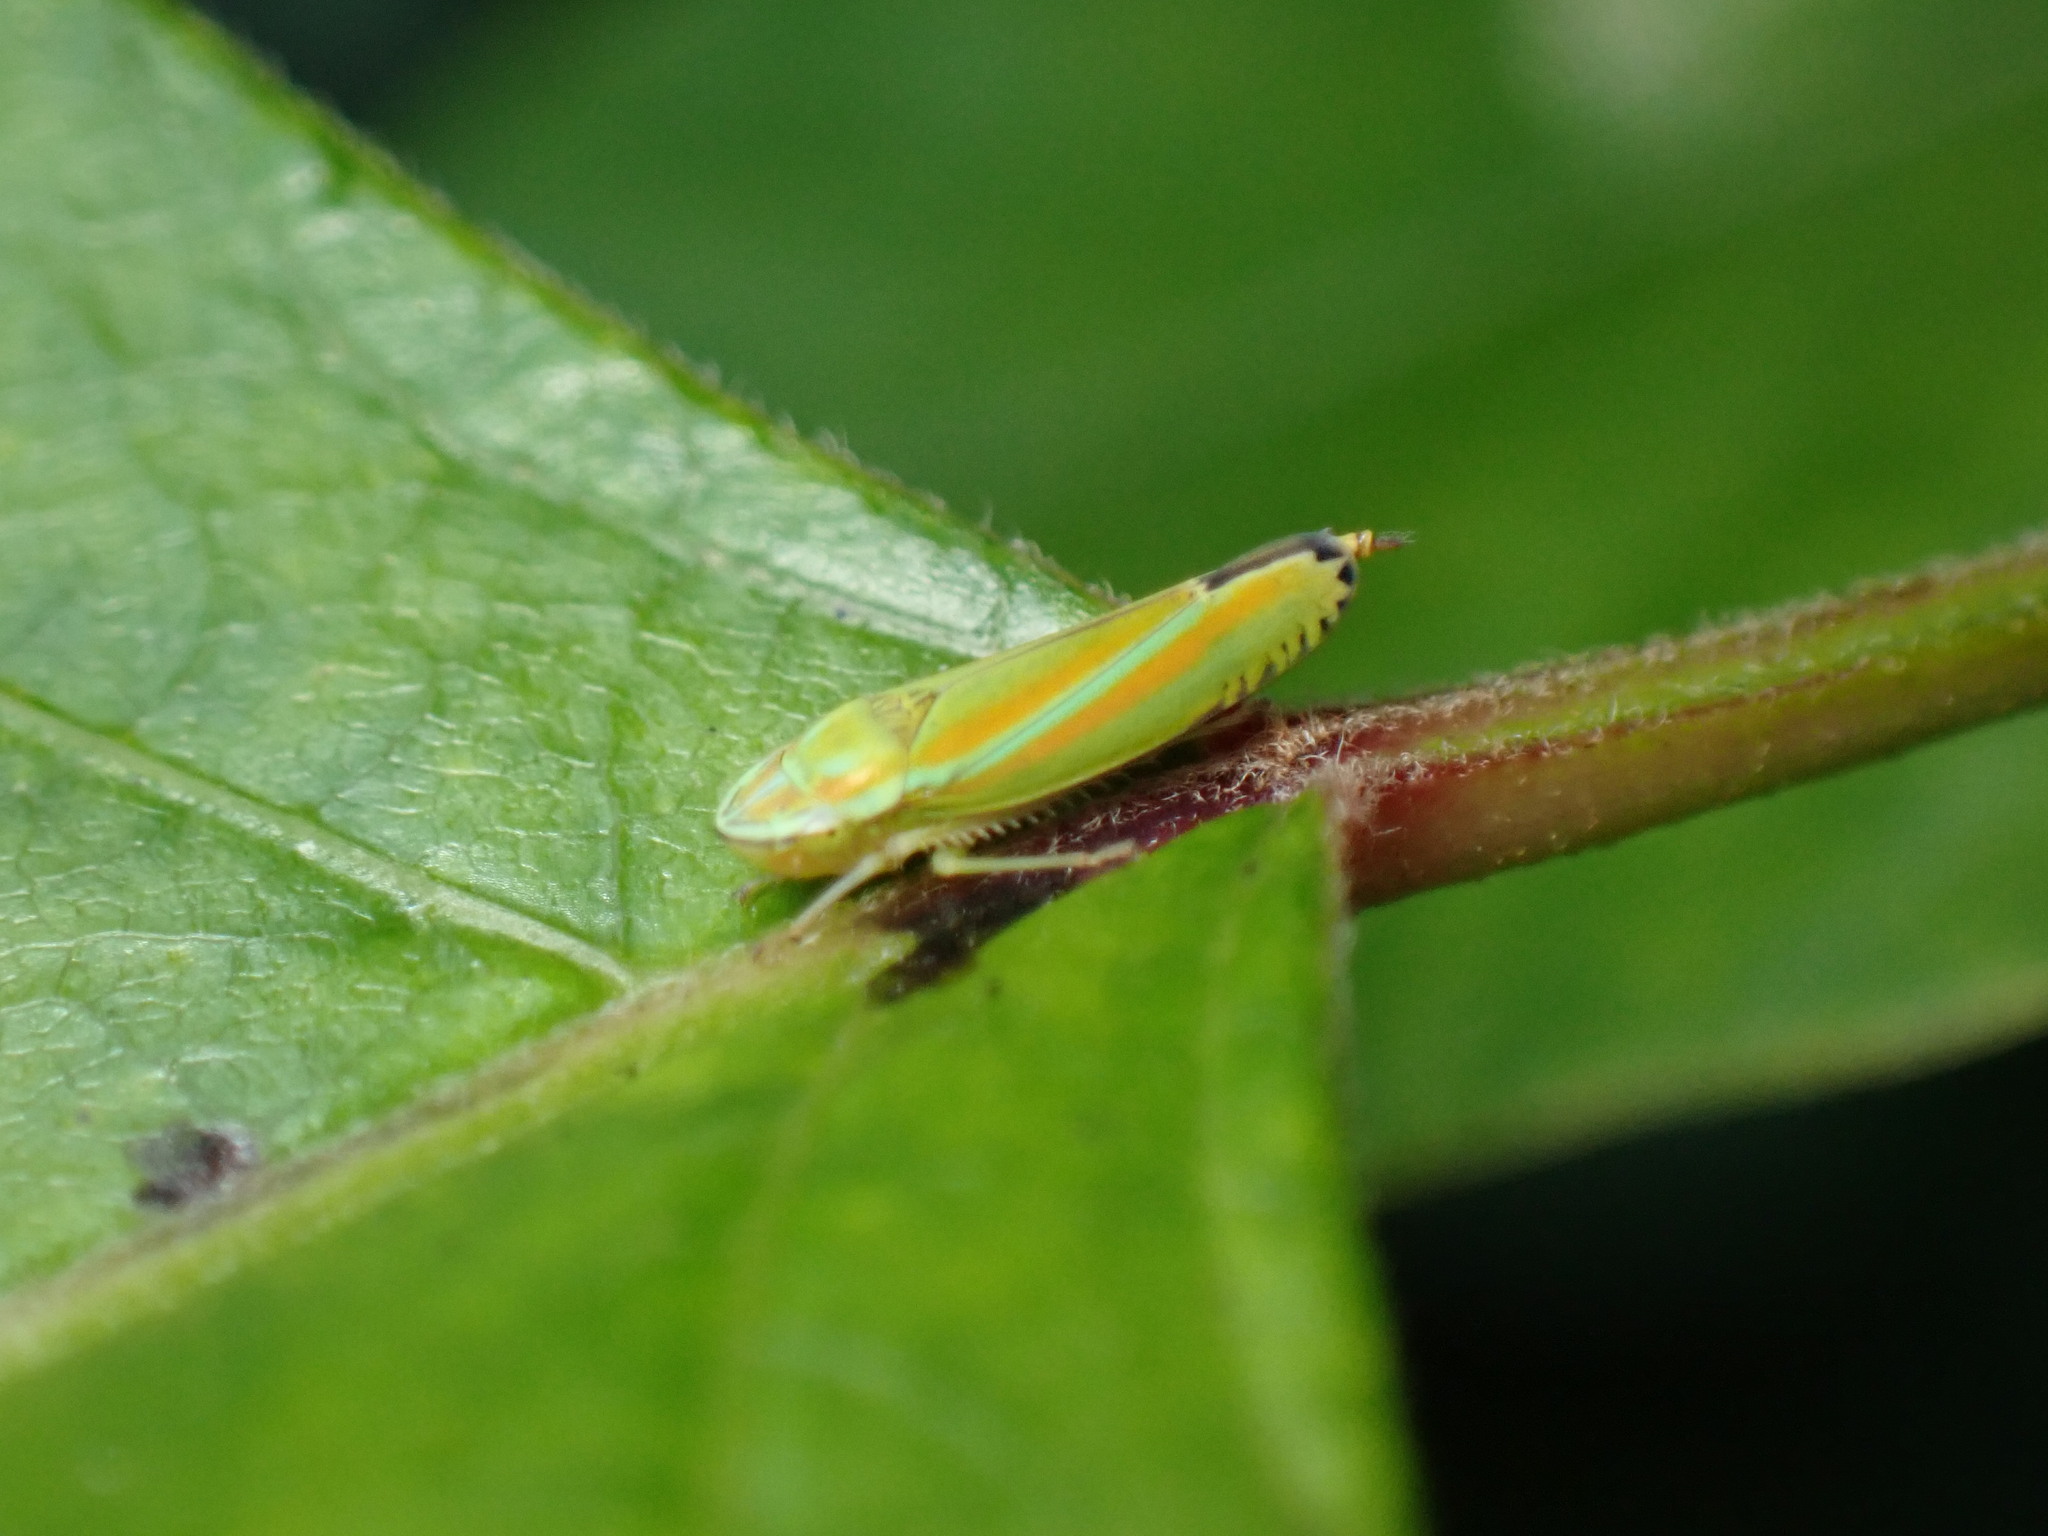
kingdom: Animalia
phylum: Arthropoda
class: Insecta
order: Hemiptera
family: Cicadellidae
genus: Graphocephala
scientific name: Graphocephala versuta
